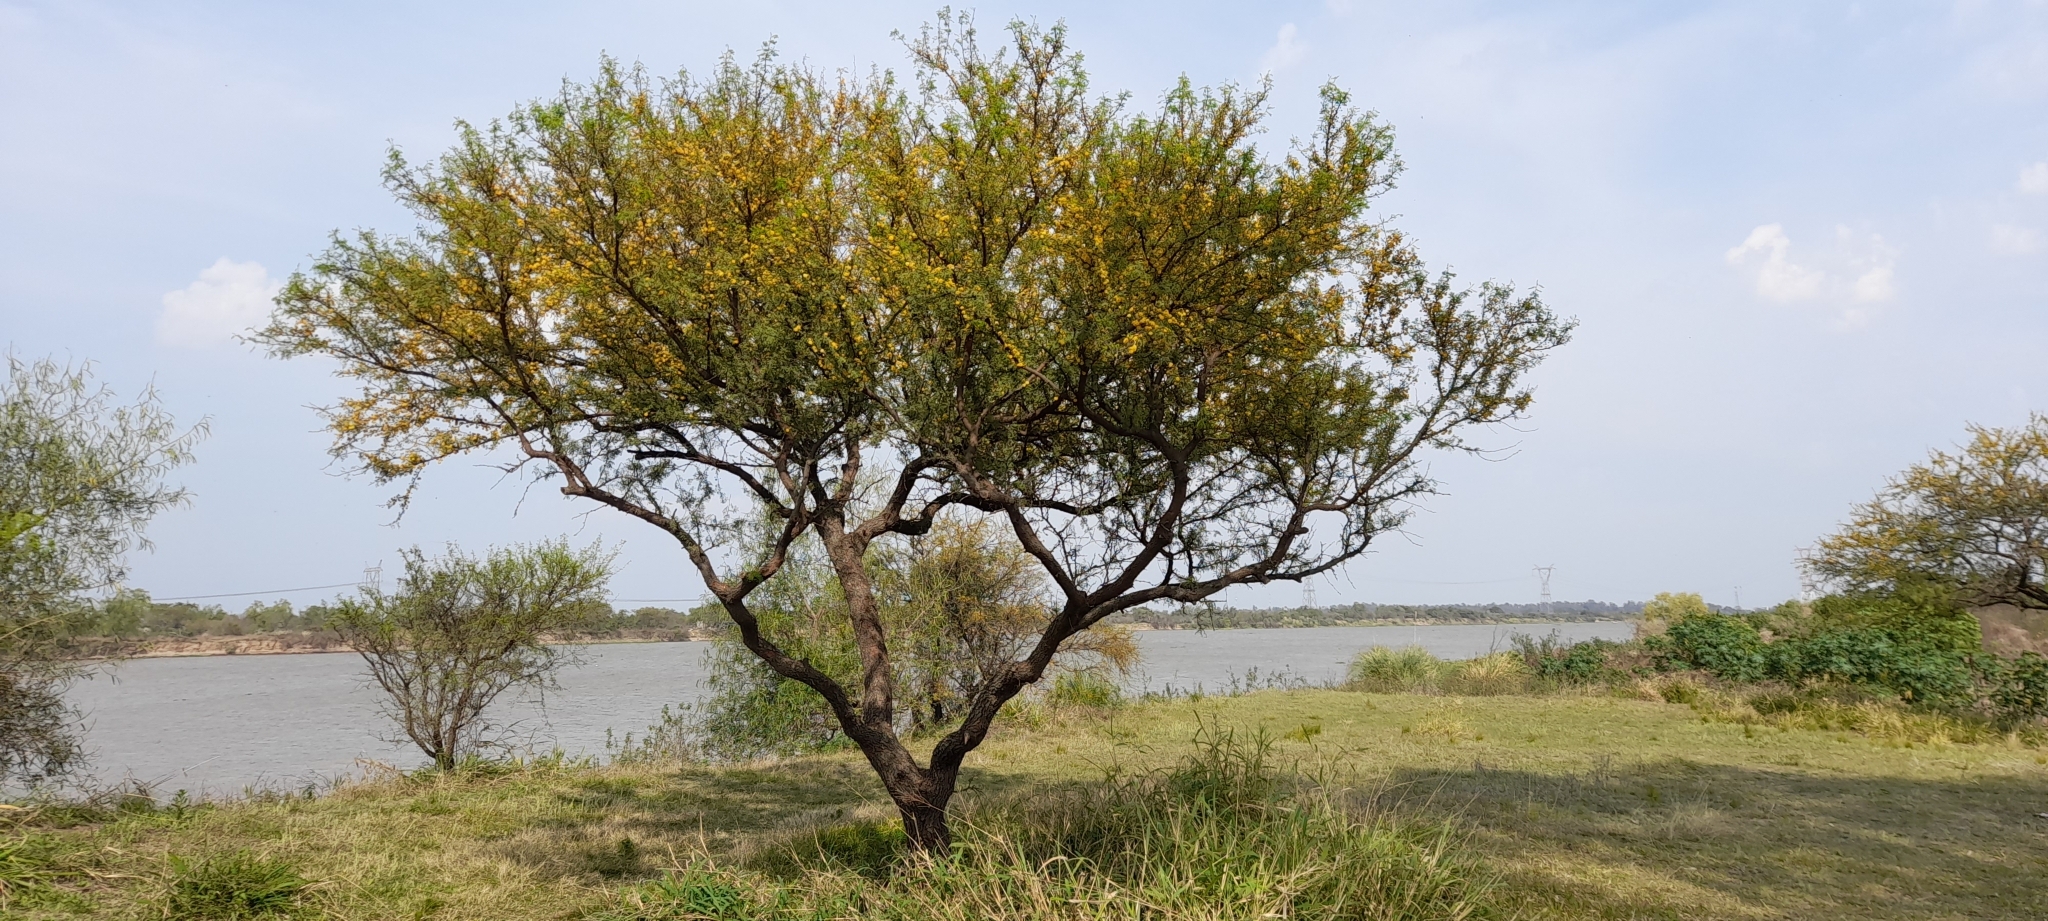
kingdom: Plantae
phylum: Tracheophyta
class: Magnoliopsida
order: Fabales
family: Fabaceae
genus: Vachellia
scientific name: Vachellia caven
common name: Roman cassie
